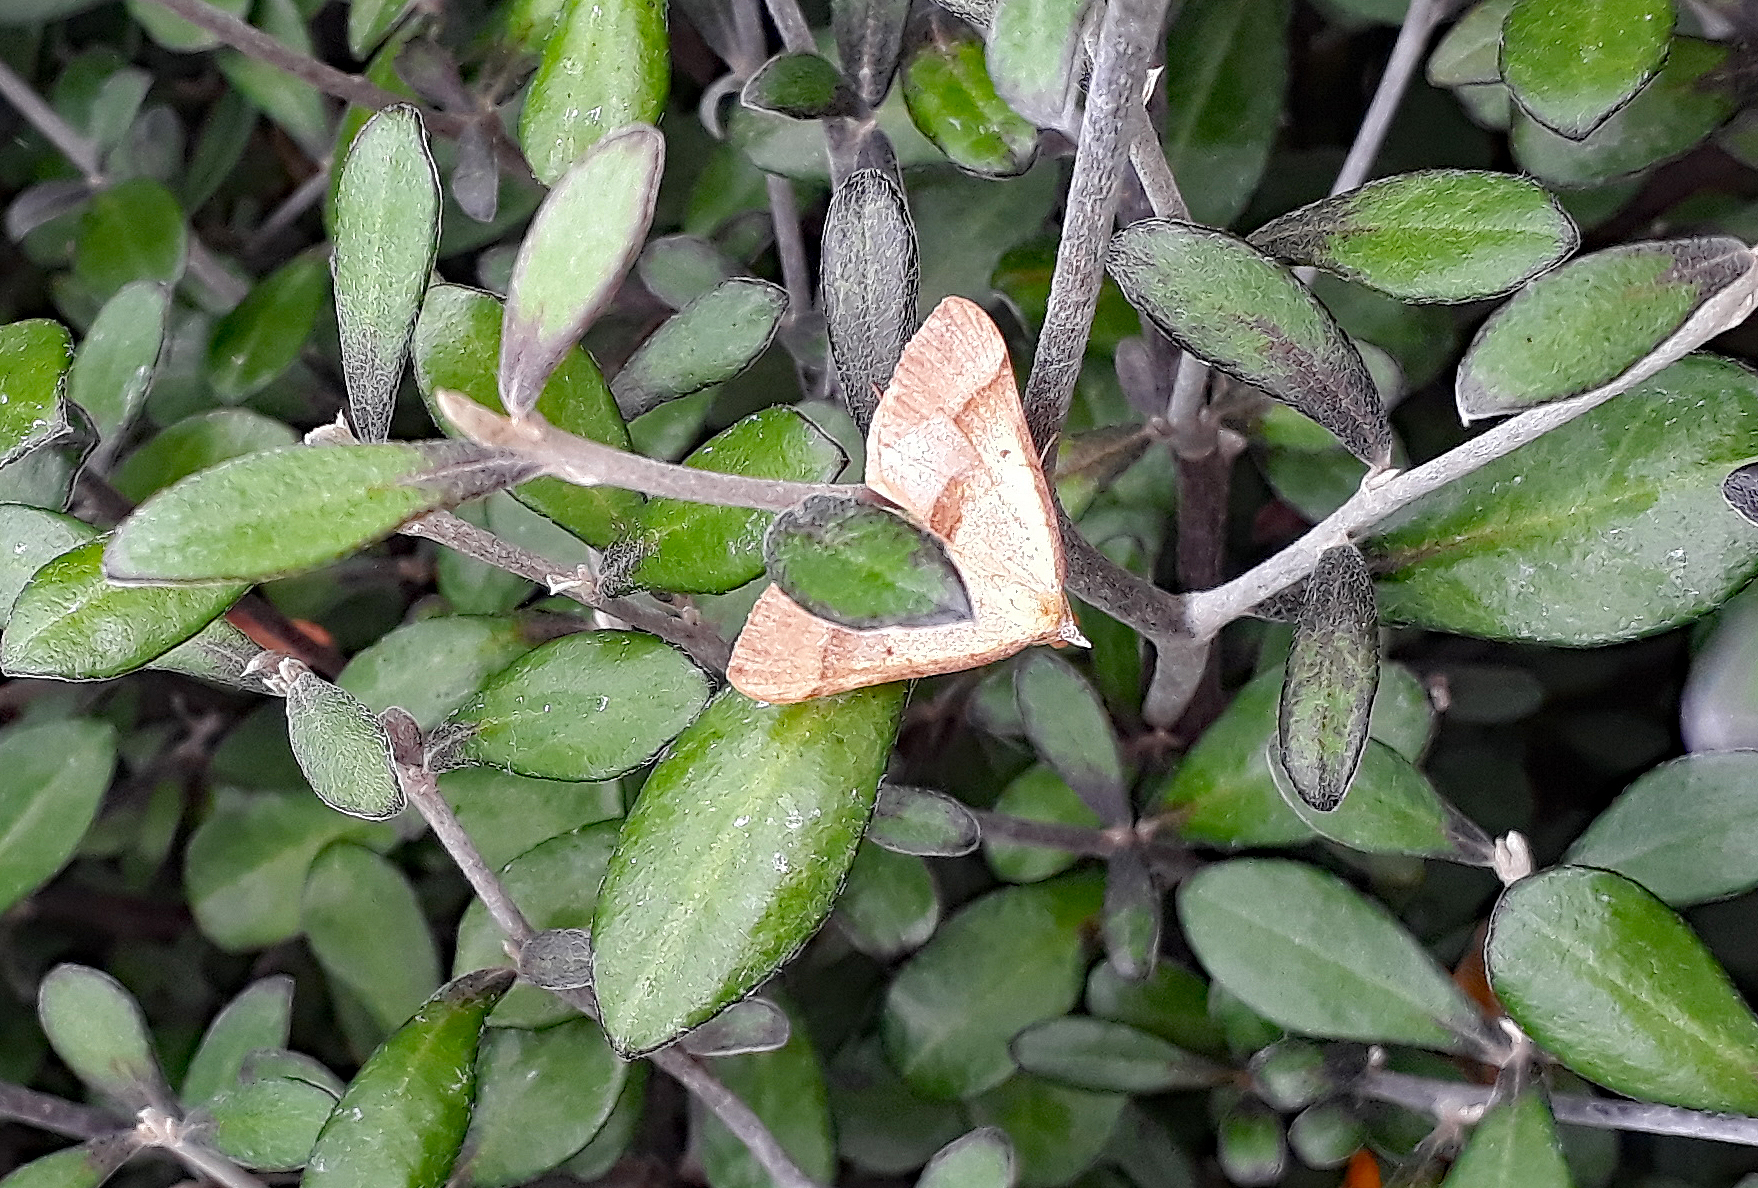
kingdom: Animalia
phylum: Arthropoda
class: Insecta
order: Lepidoptera
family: Geometridae
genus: Anachloris
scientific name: Anachloris subochraria
